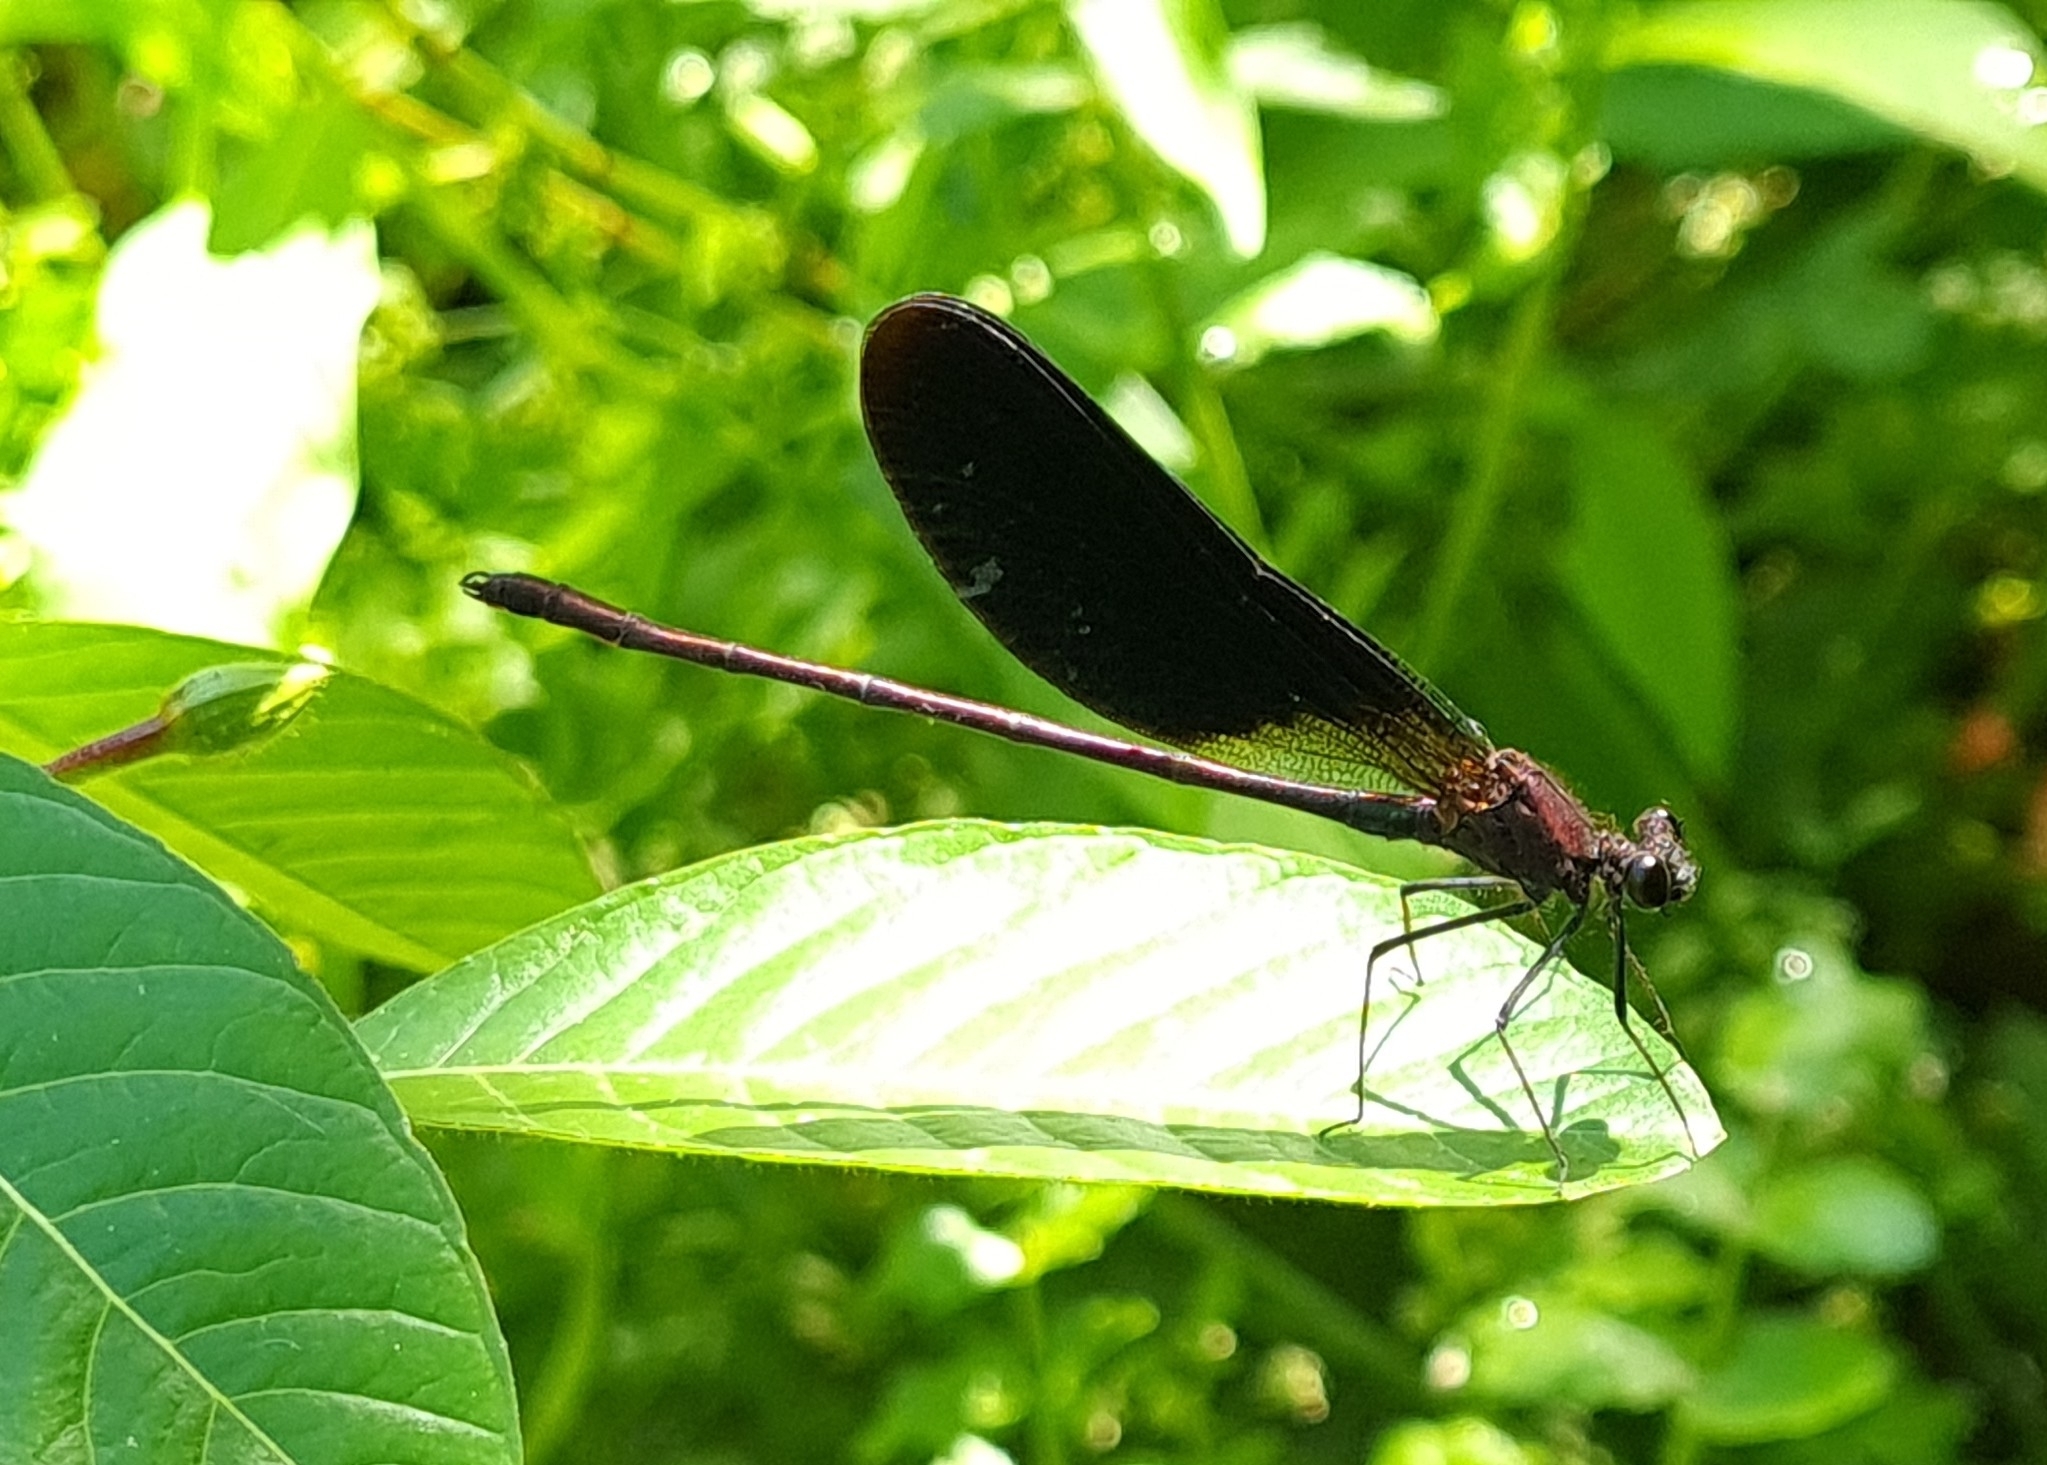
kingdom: Animalia
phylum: Arthropoda
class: Insecta
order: Odonata
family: Calopterygidae
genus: Calopteryx
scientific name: Calopteryx haemorrhoidalis
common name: Copper demoiselle
